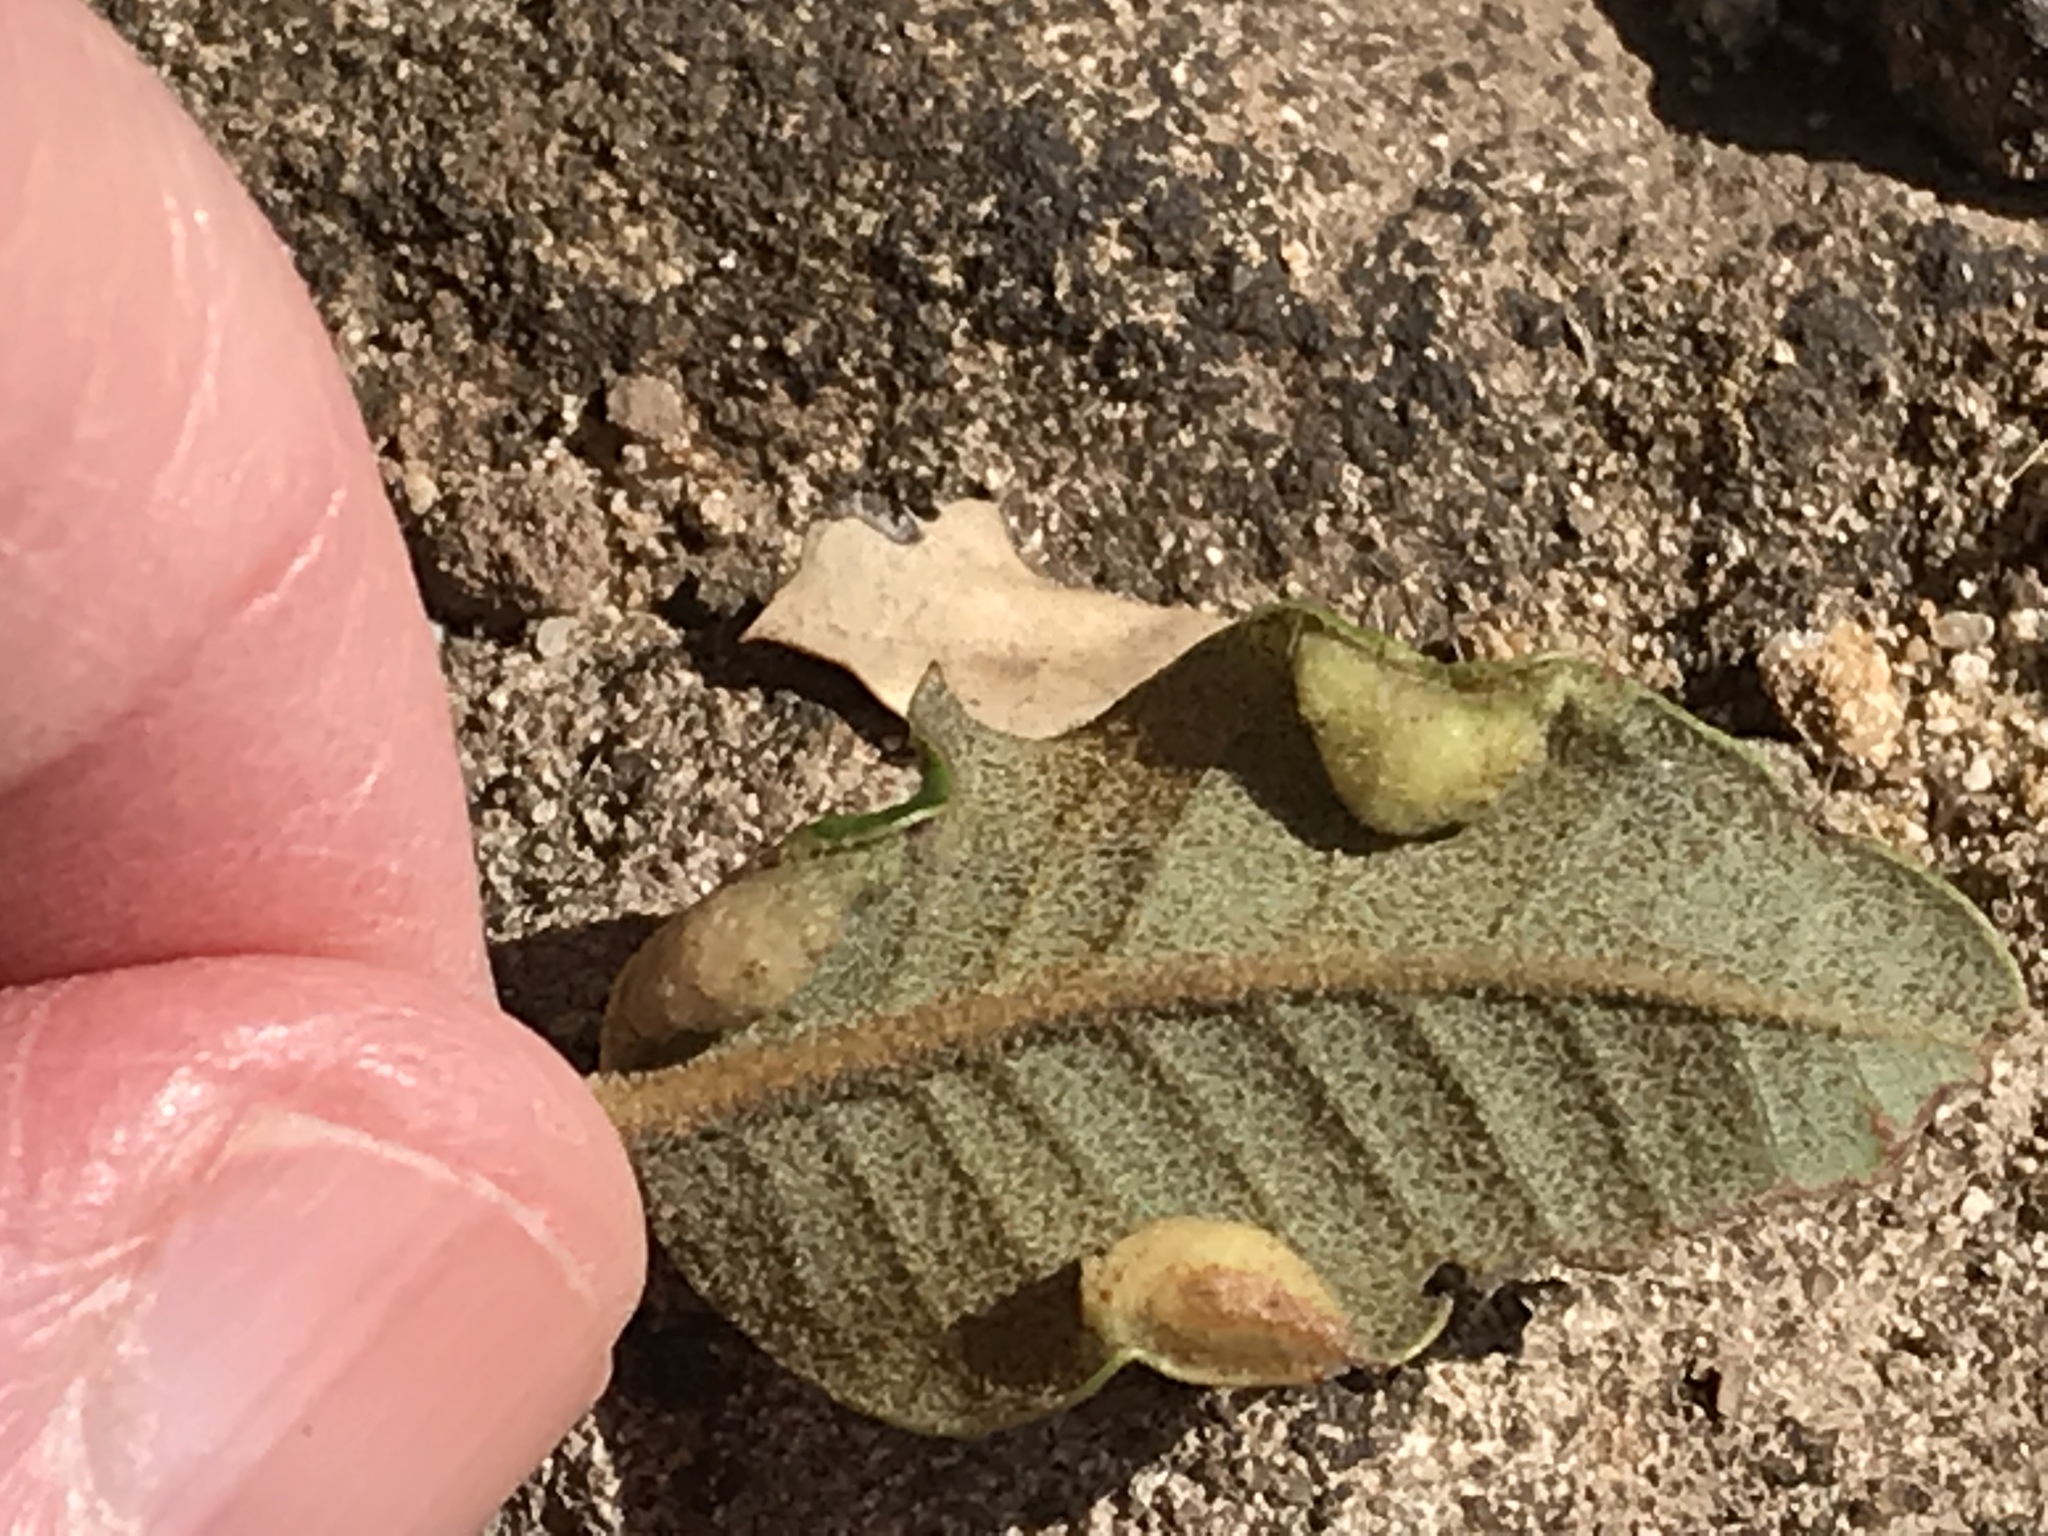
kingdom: Animalia
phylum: Arthropoda
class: Insecta
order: Diptera
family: Cecidomyiidae
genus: Dasineura
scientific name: Dasineura silvestrii
